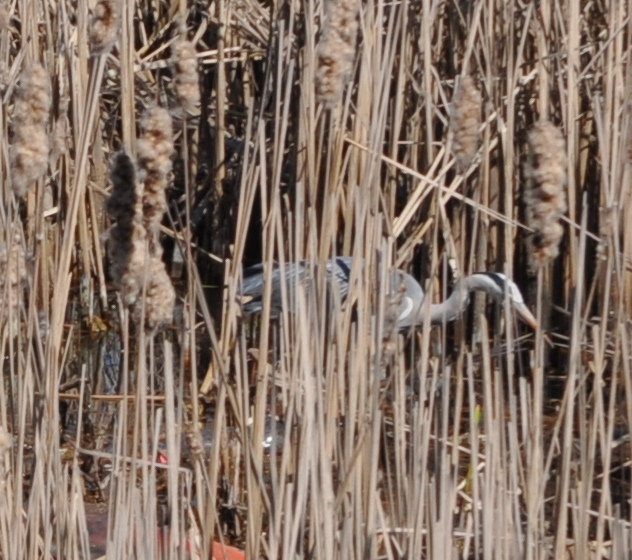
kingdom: Animalia
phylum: Chordata
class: Aves
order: Pelecaniformes
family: Ardeidae
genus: Ardea
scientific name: Ardea cinerea
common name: Grey heron
